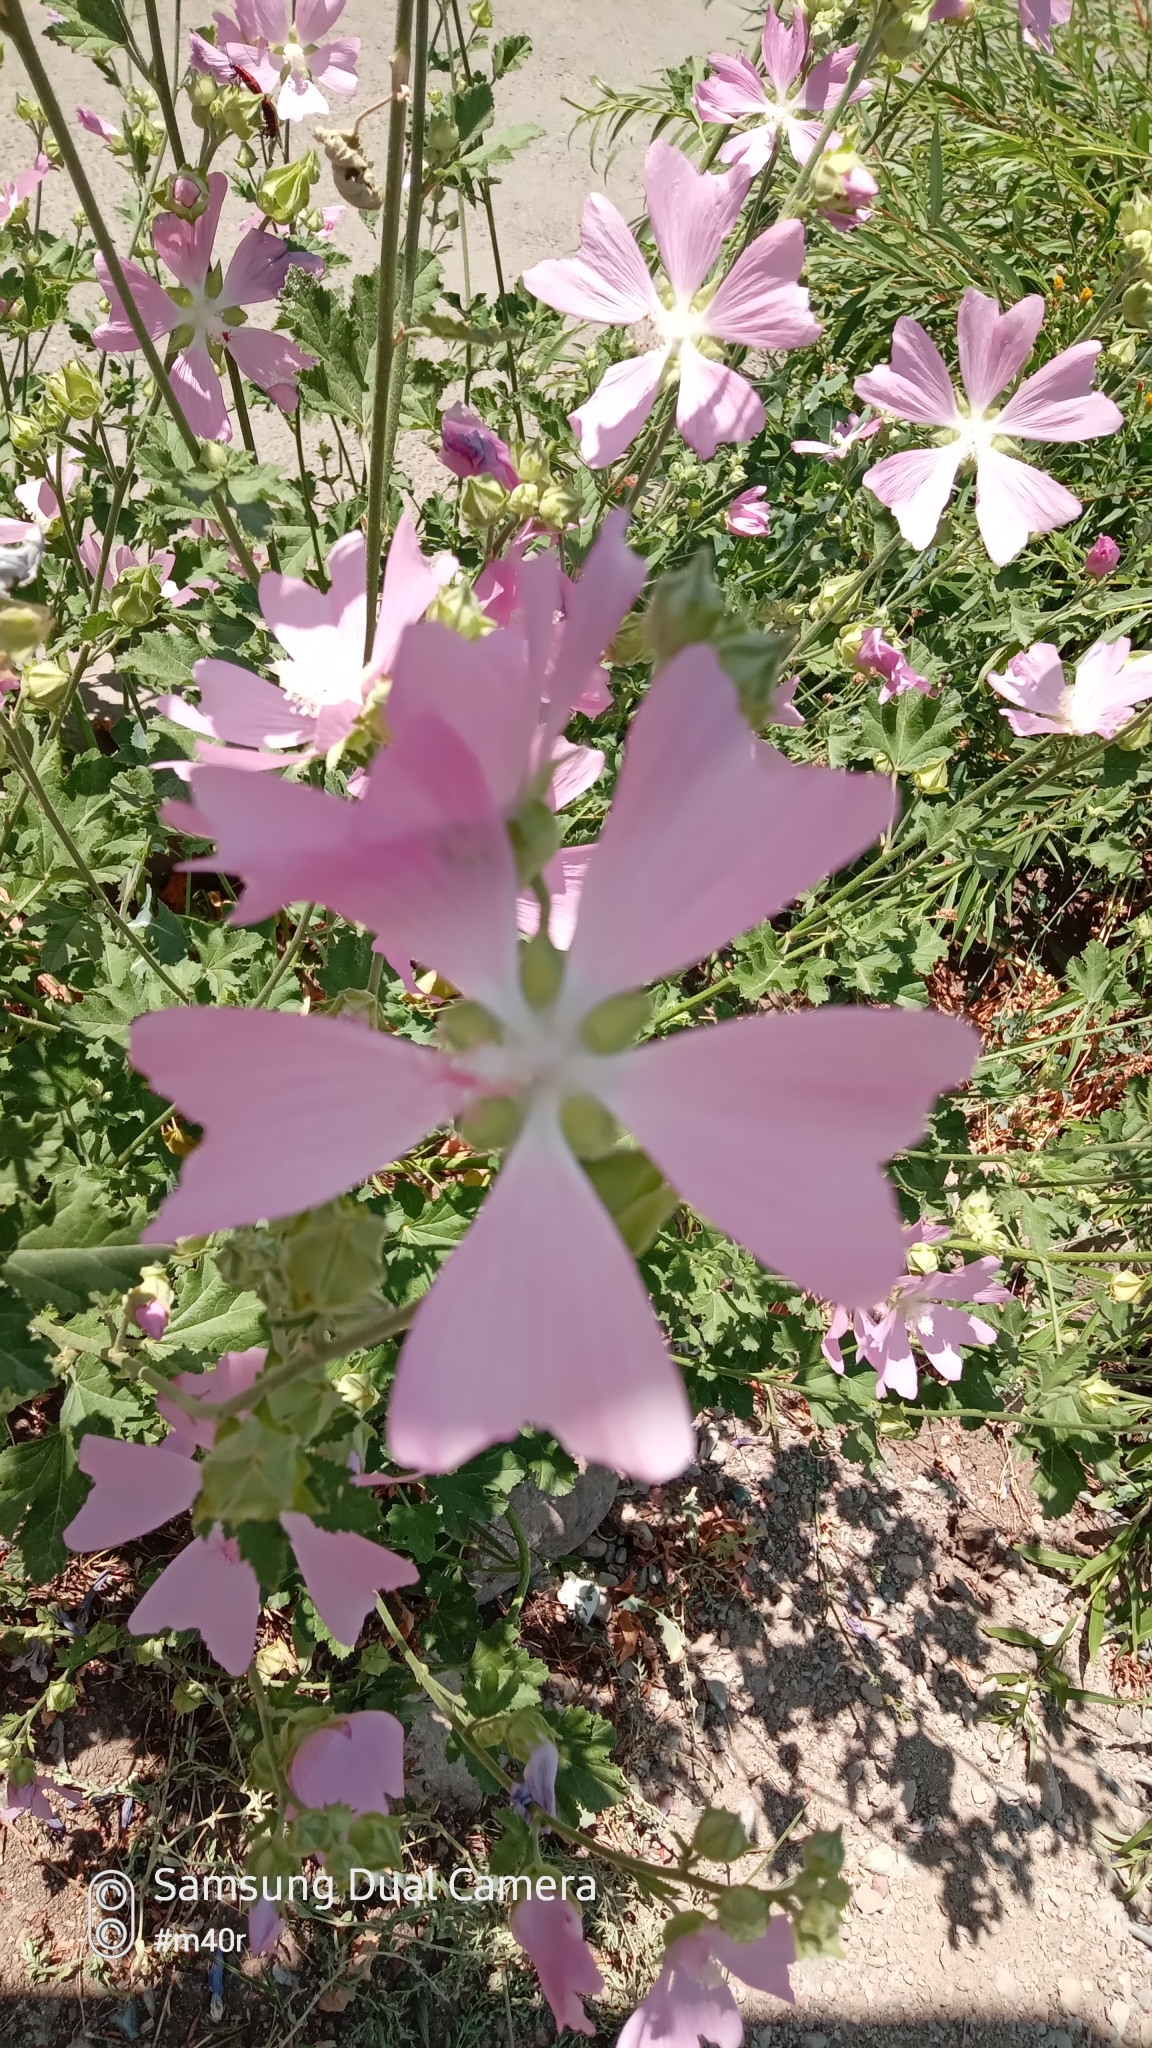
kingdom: Plantae
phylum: Tracheophyta
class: Magnoliopsida
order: Malvales
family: Malvaceae
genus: Malva
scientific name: Malva thuringiaca
